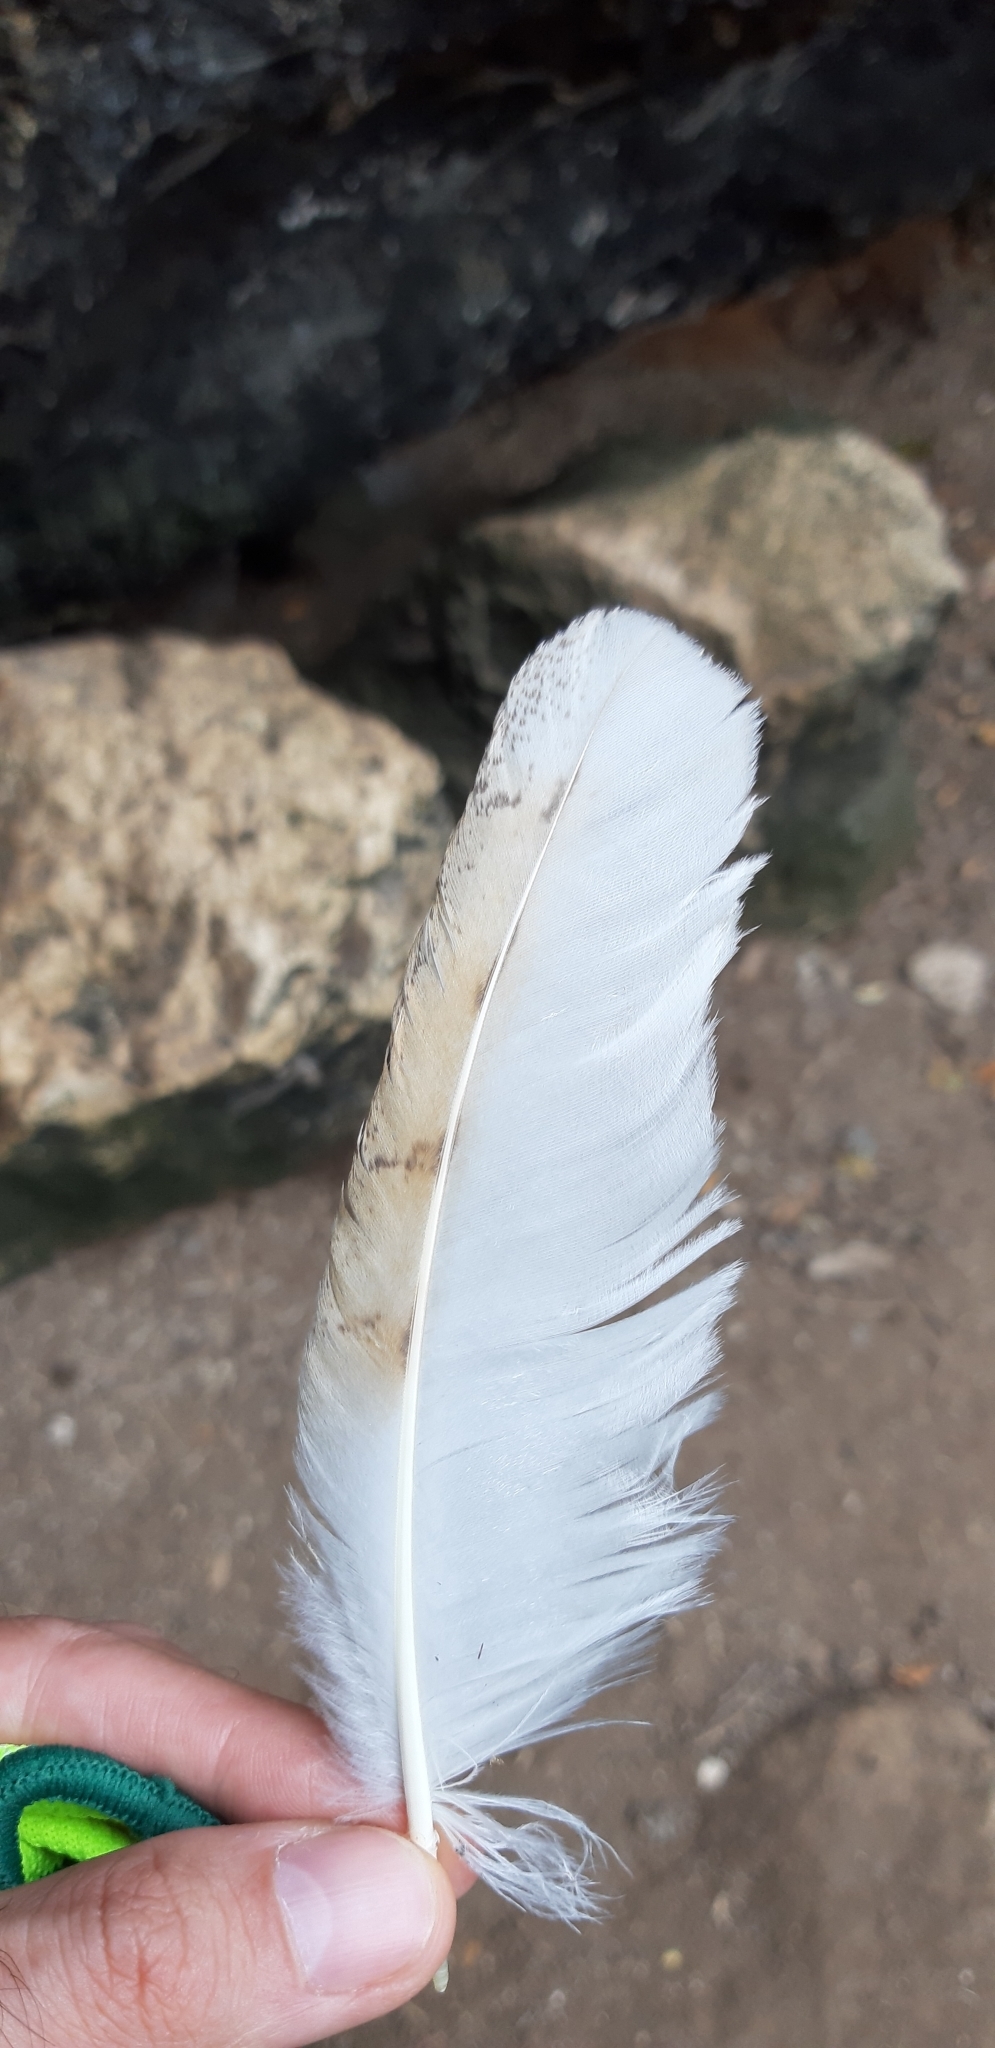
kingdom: Animalia
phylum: Chordata
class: Aves
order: Strigiformes
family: Tytonidae
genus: Tyto
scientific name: Tyto alba
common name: Barn owl
